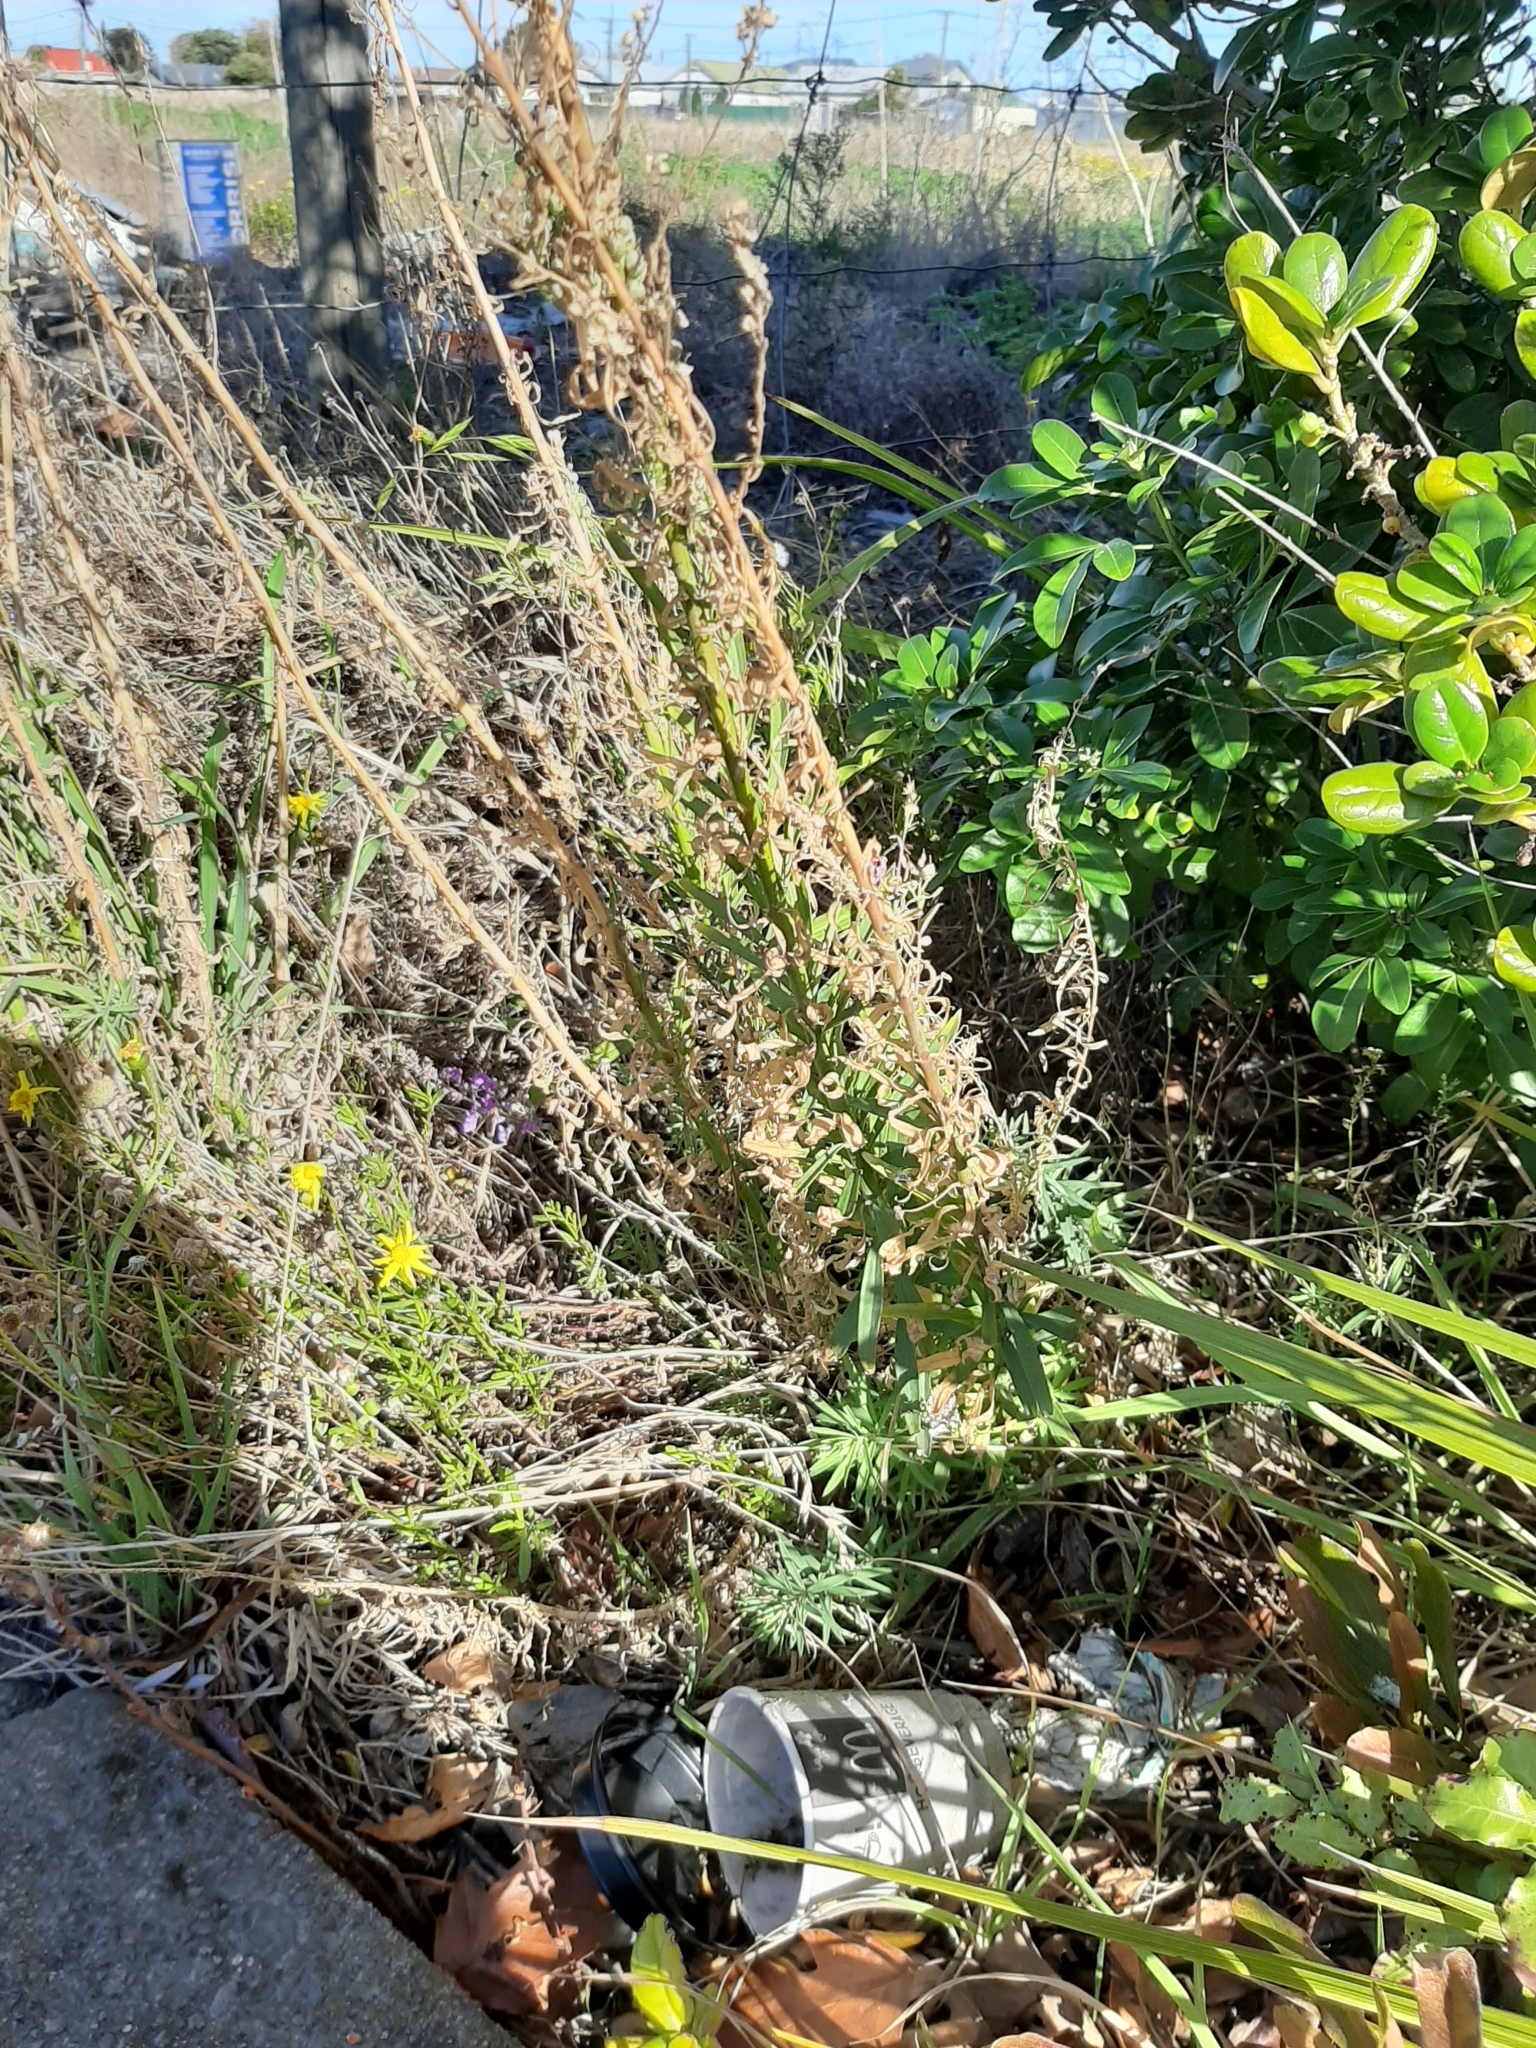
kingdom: Plantae
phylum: Tracheophyta
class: Magnoliopsida
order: Lamiales
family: Plantaginaceae
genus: Linaria
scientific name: Linaria purpurea
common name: Purple toadflax
